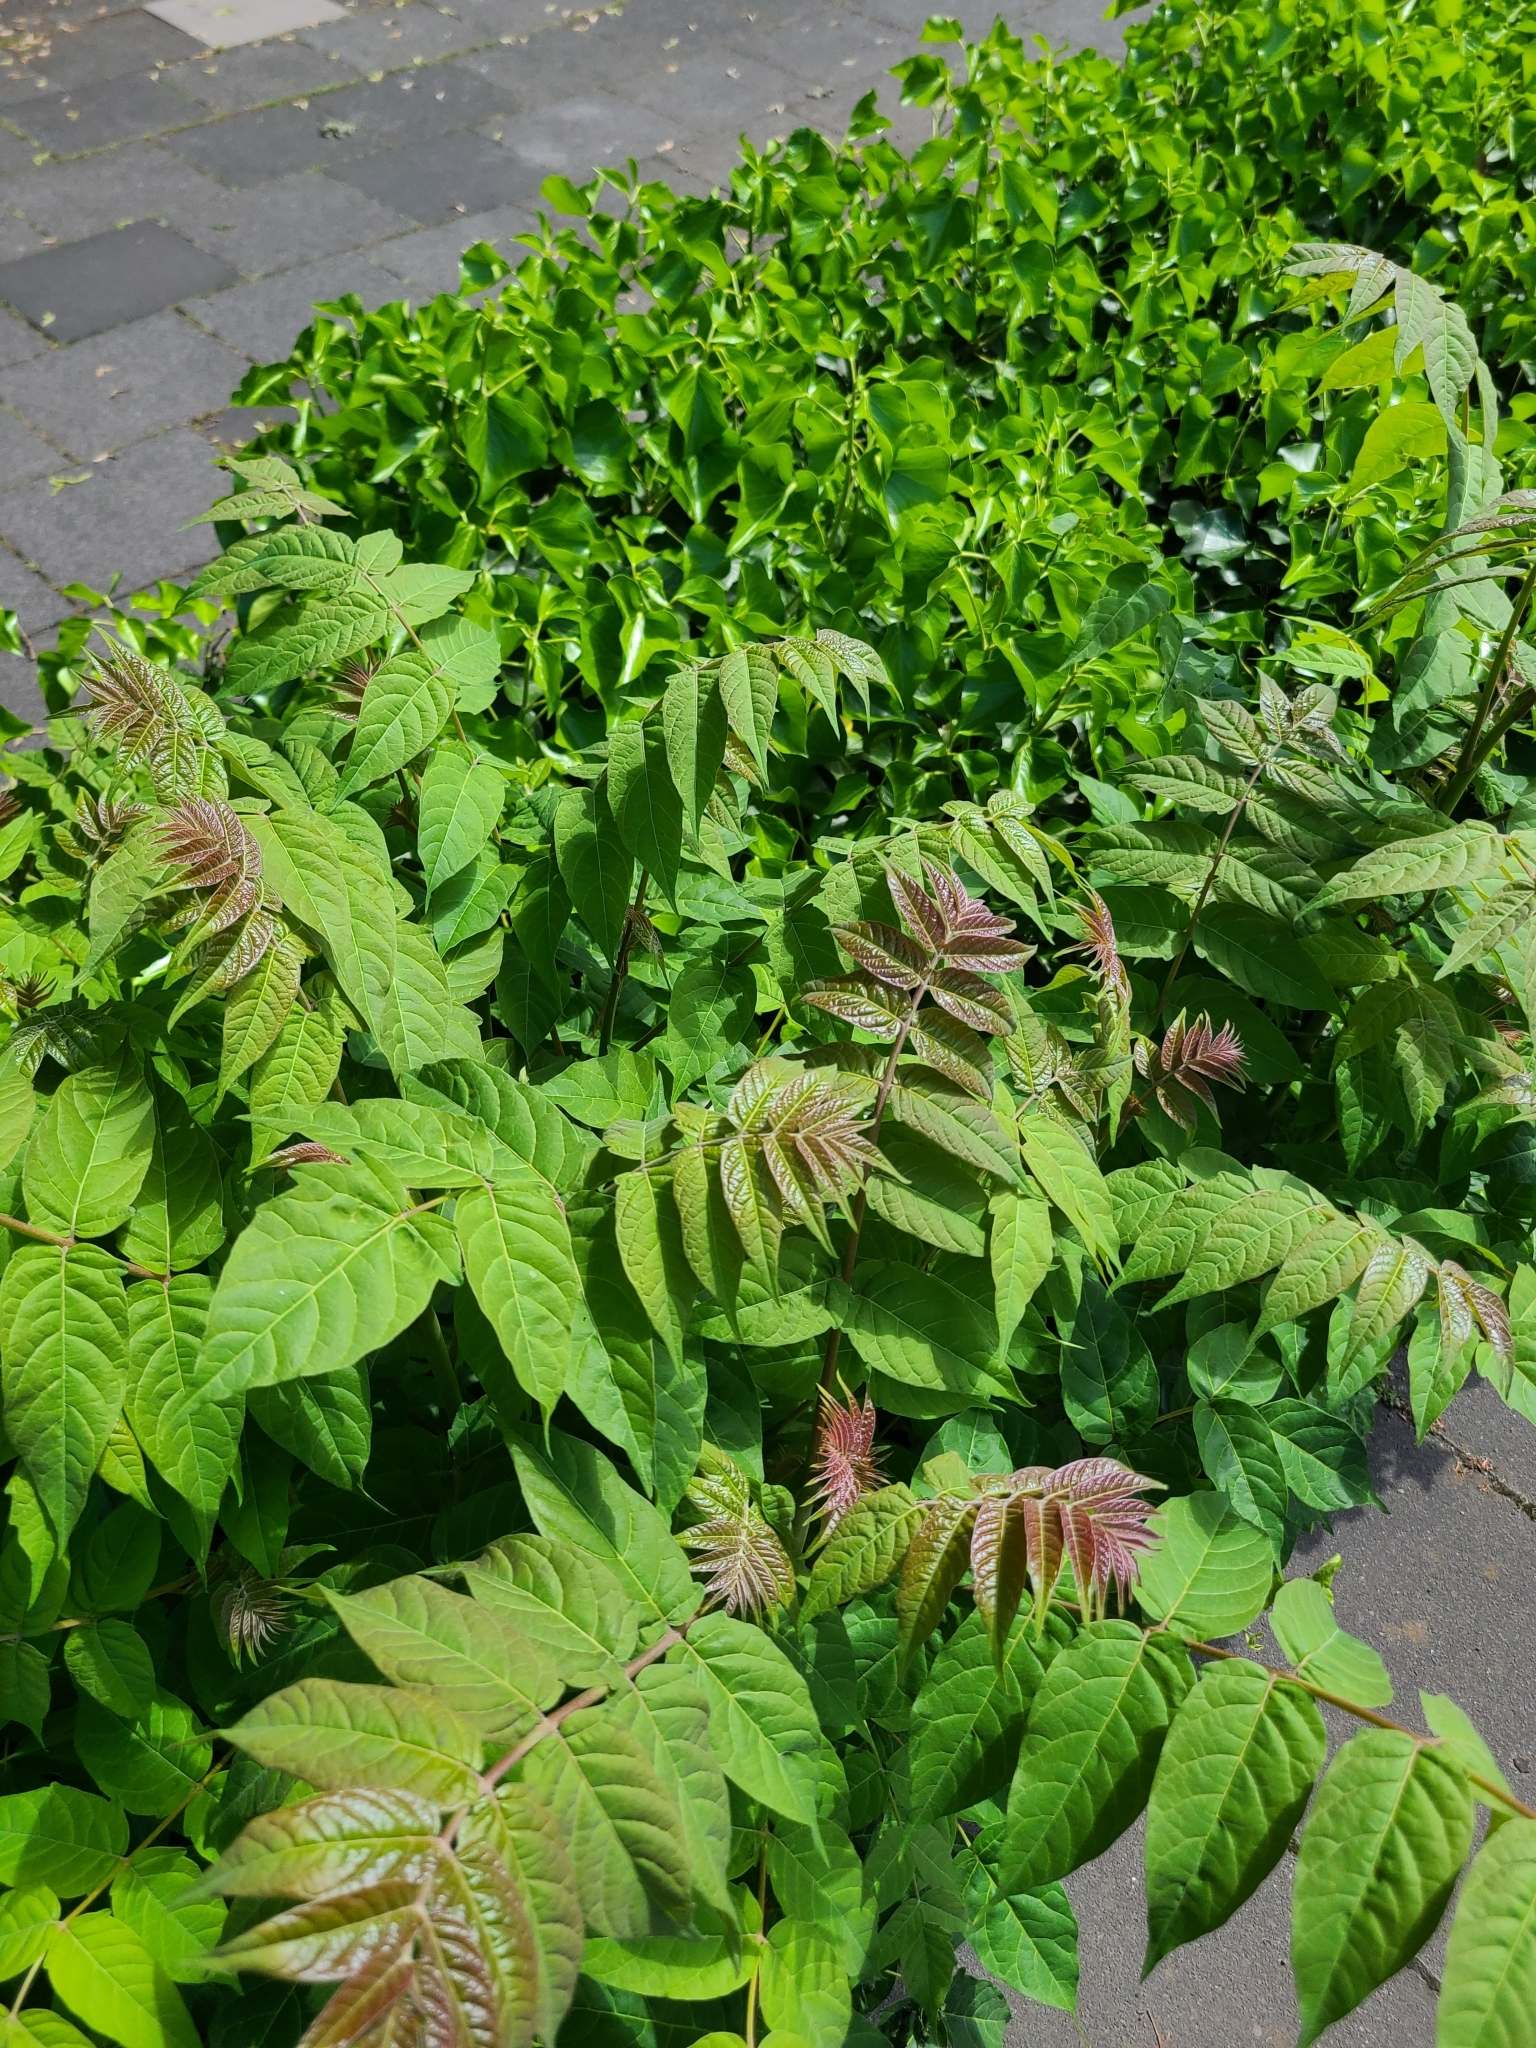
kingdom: Plantae
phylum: Tracheophyta
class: Magnoliopsida
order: Sapindales
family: Simaroubaceae
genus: Ailanthus
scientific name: Ailanthus altissima
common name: Tree-of-heaven
